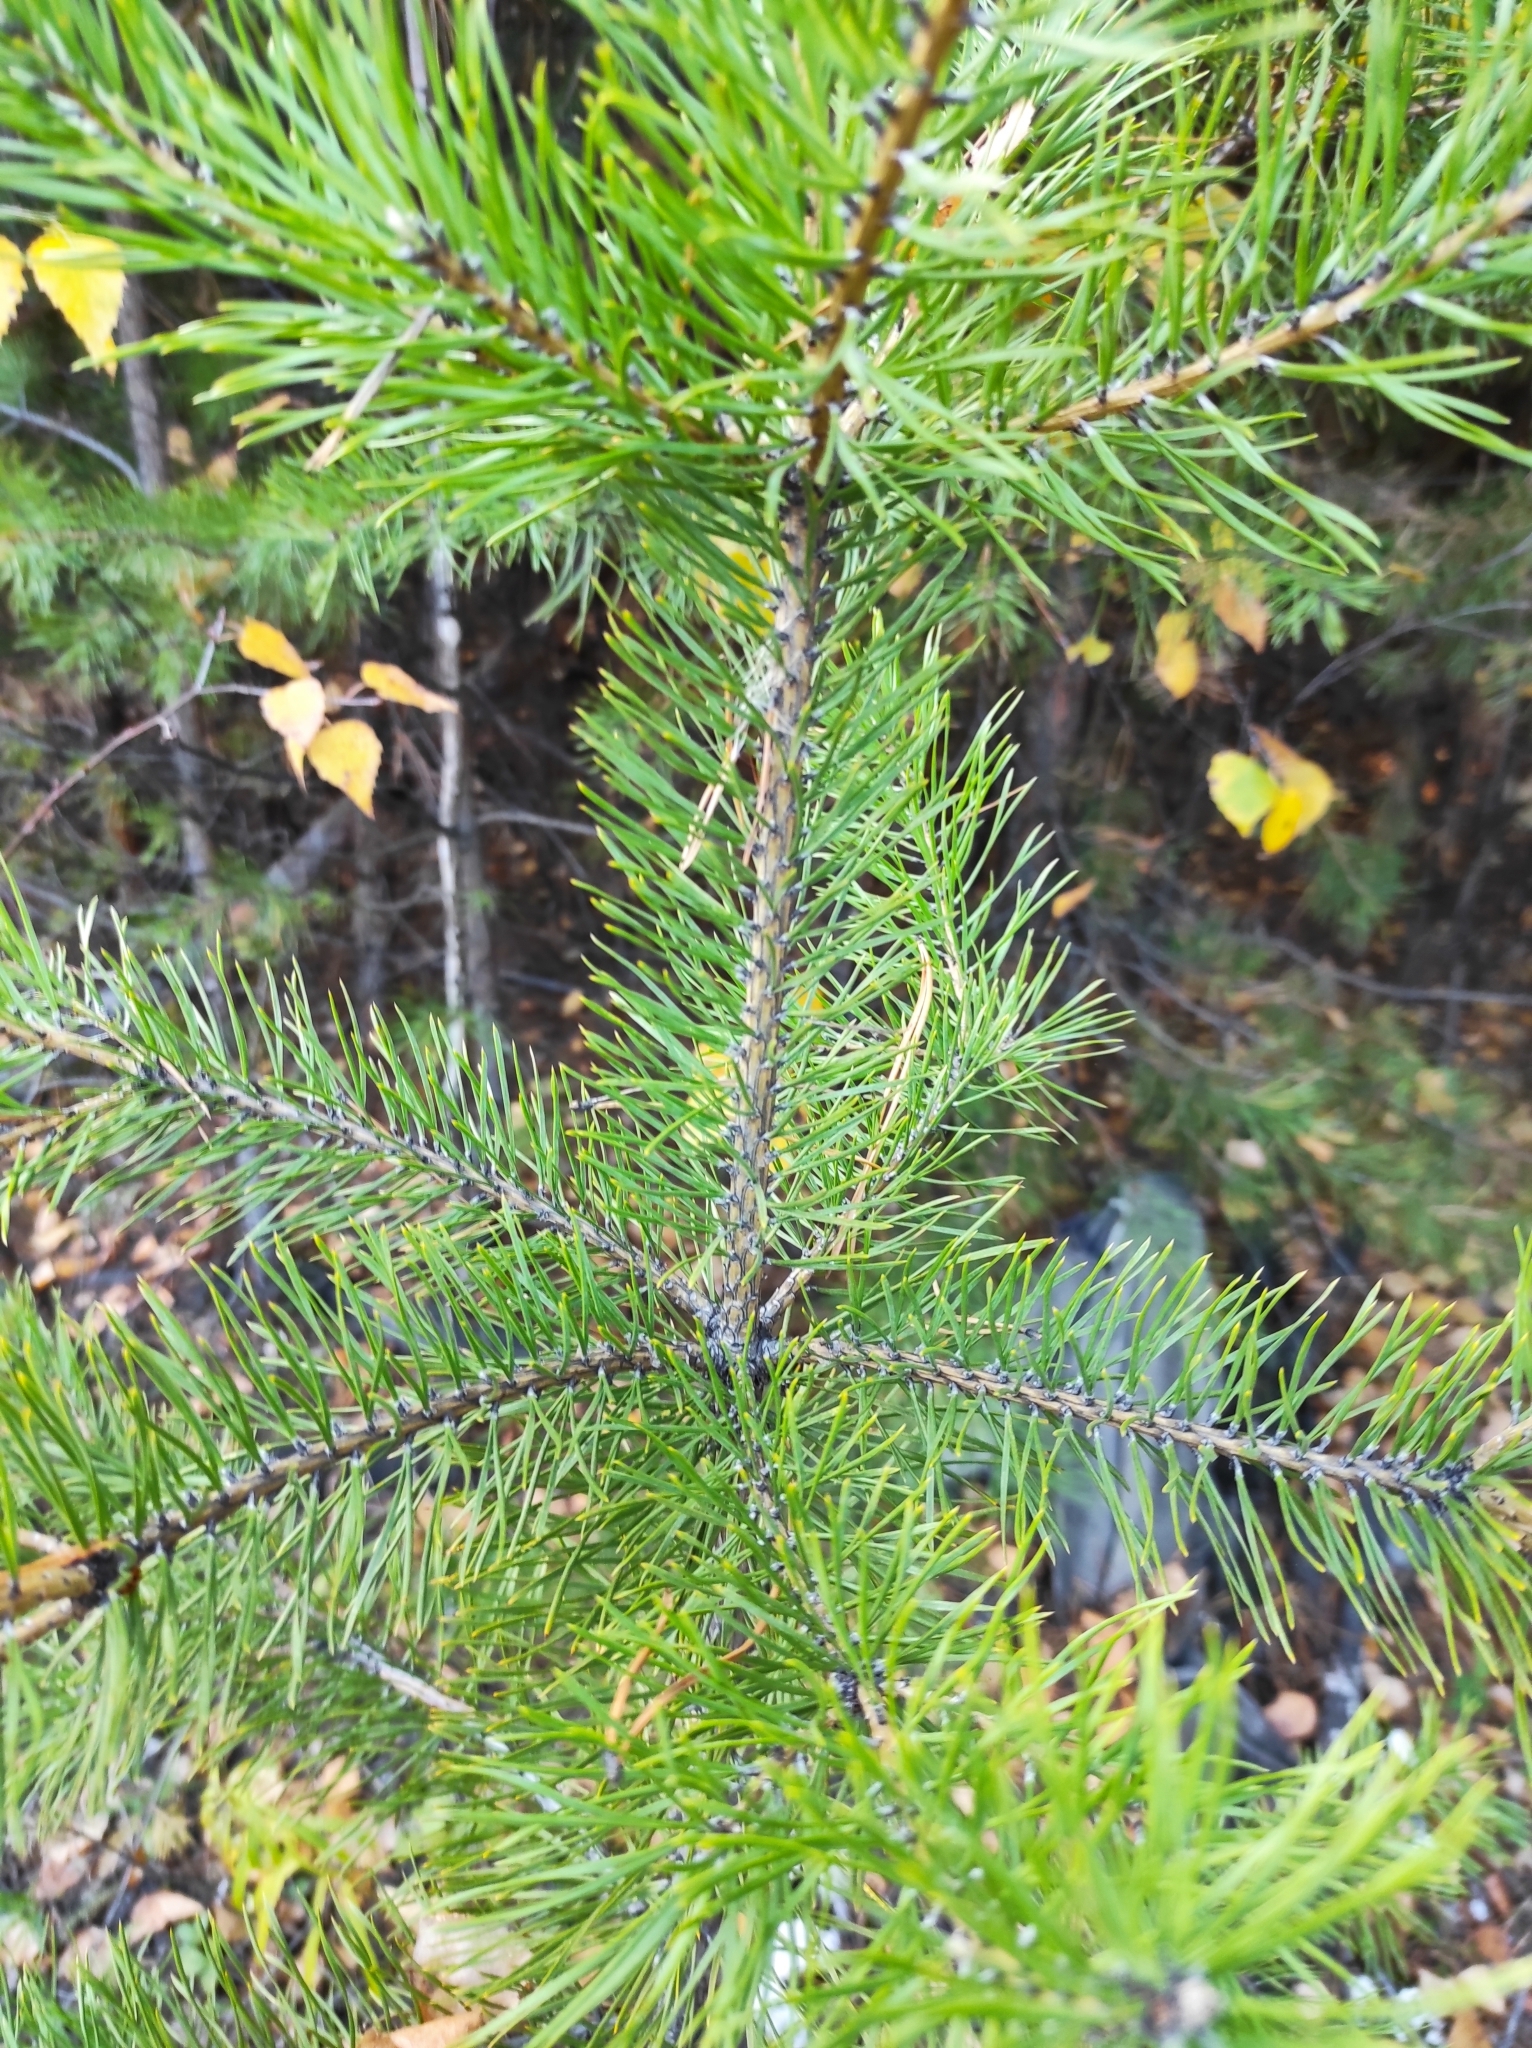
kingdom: Plantae
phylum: Tracheophyta
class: Pinopsida
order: Pinales
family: Pinaceae
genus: Pinus
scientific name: Pinus sylvestris
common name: Scots pine
